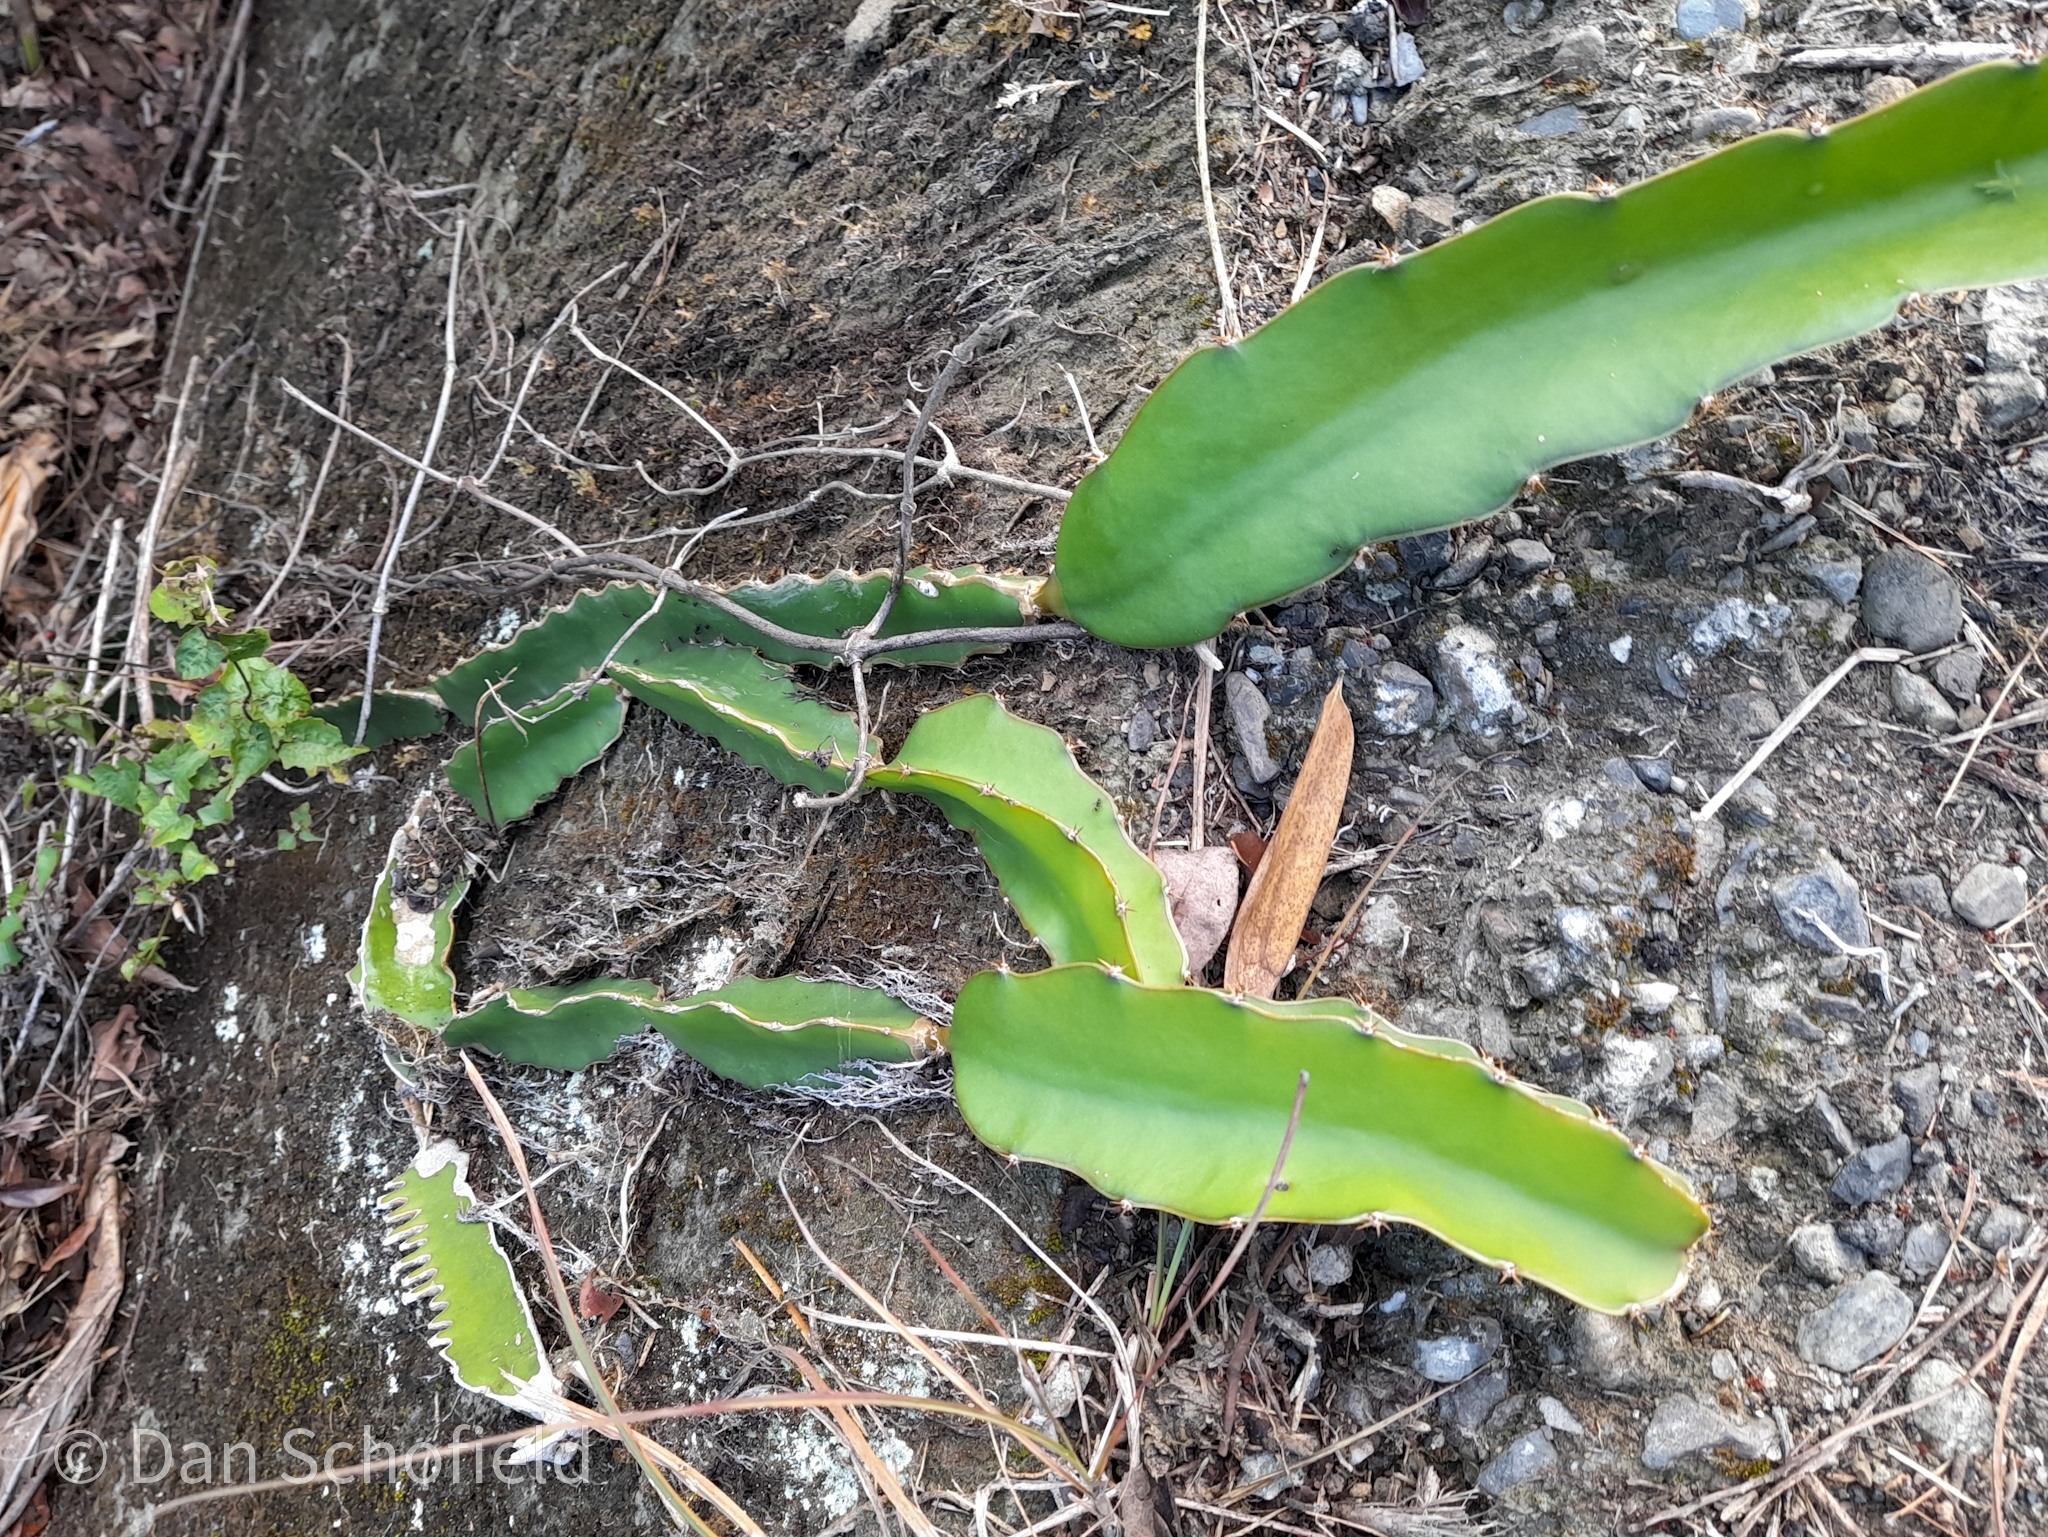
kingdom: Plantae
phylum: Tracheophyta
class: Magnoliopsida
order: Caryophyllales
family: Cactaceae
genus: Selenicereus
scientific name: Selenicereus undatus
